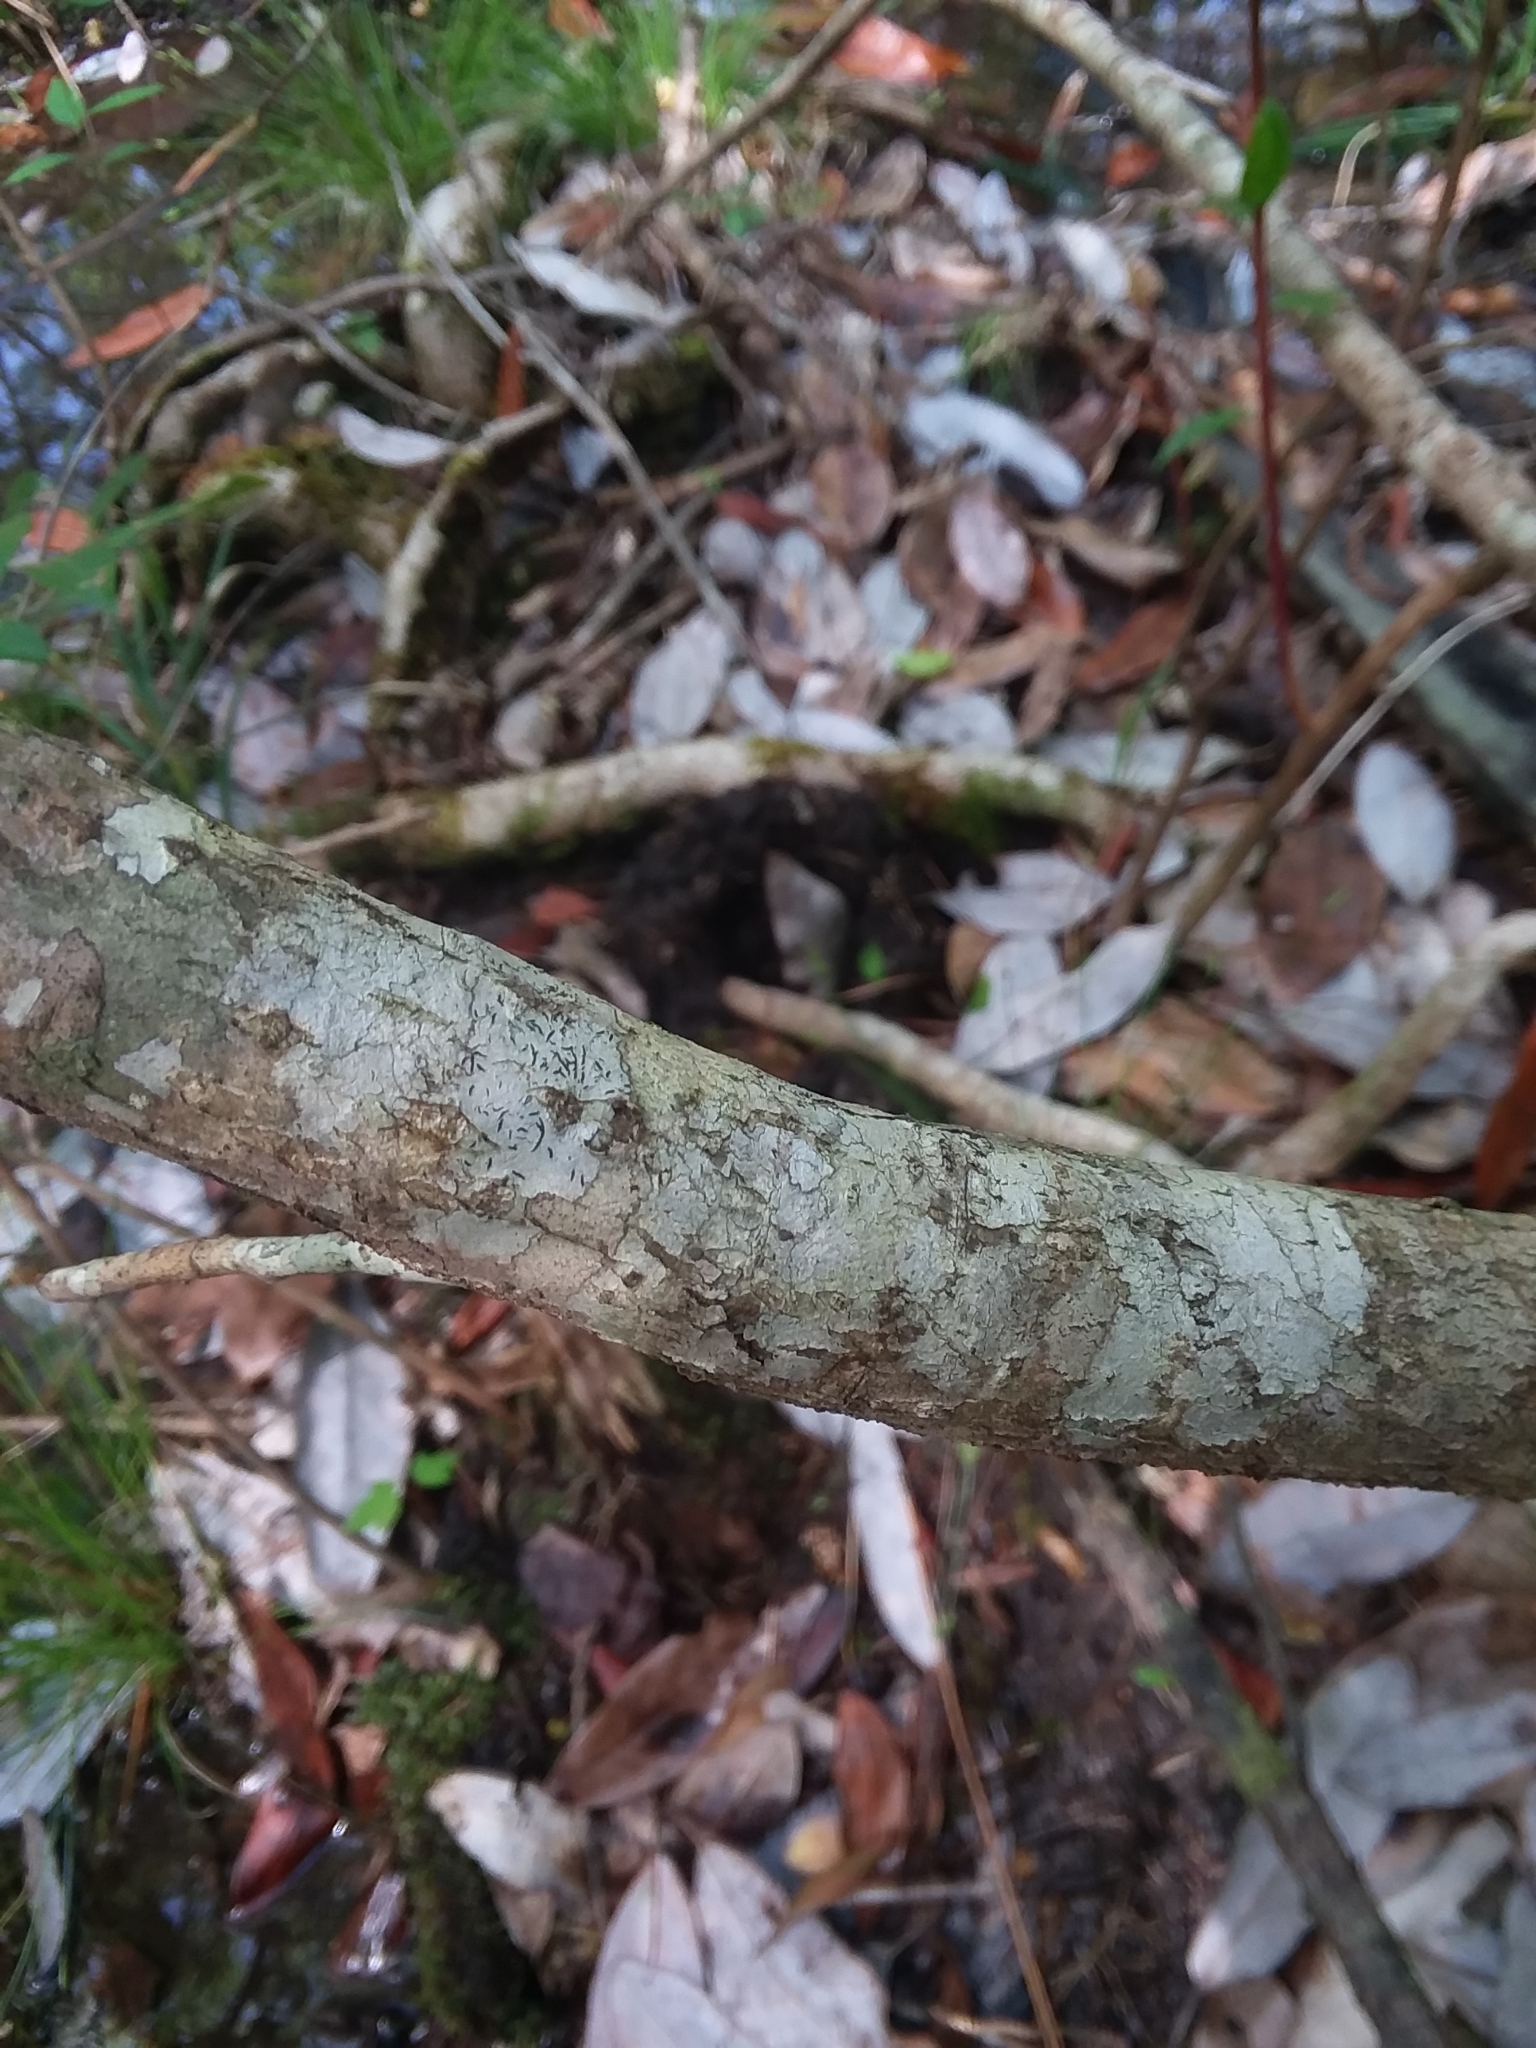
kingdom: Plantae
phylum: Tracheophyta
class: Magnoliopsida
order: Fagales
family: Myricaceae
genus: Morella
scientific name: Morella inodora
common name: Candle-berry
